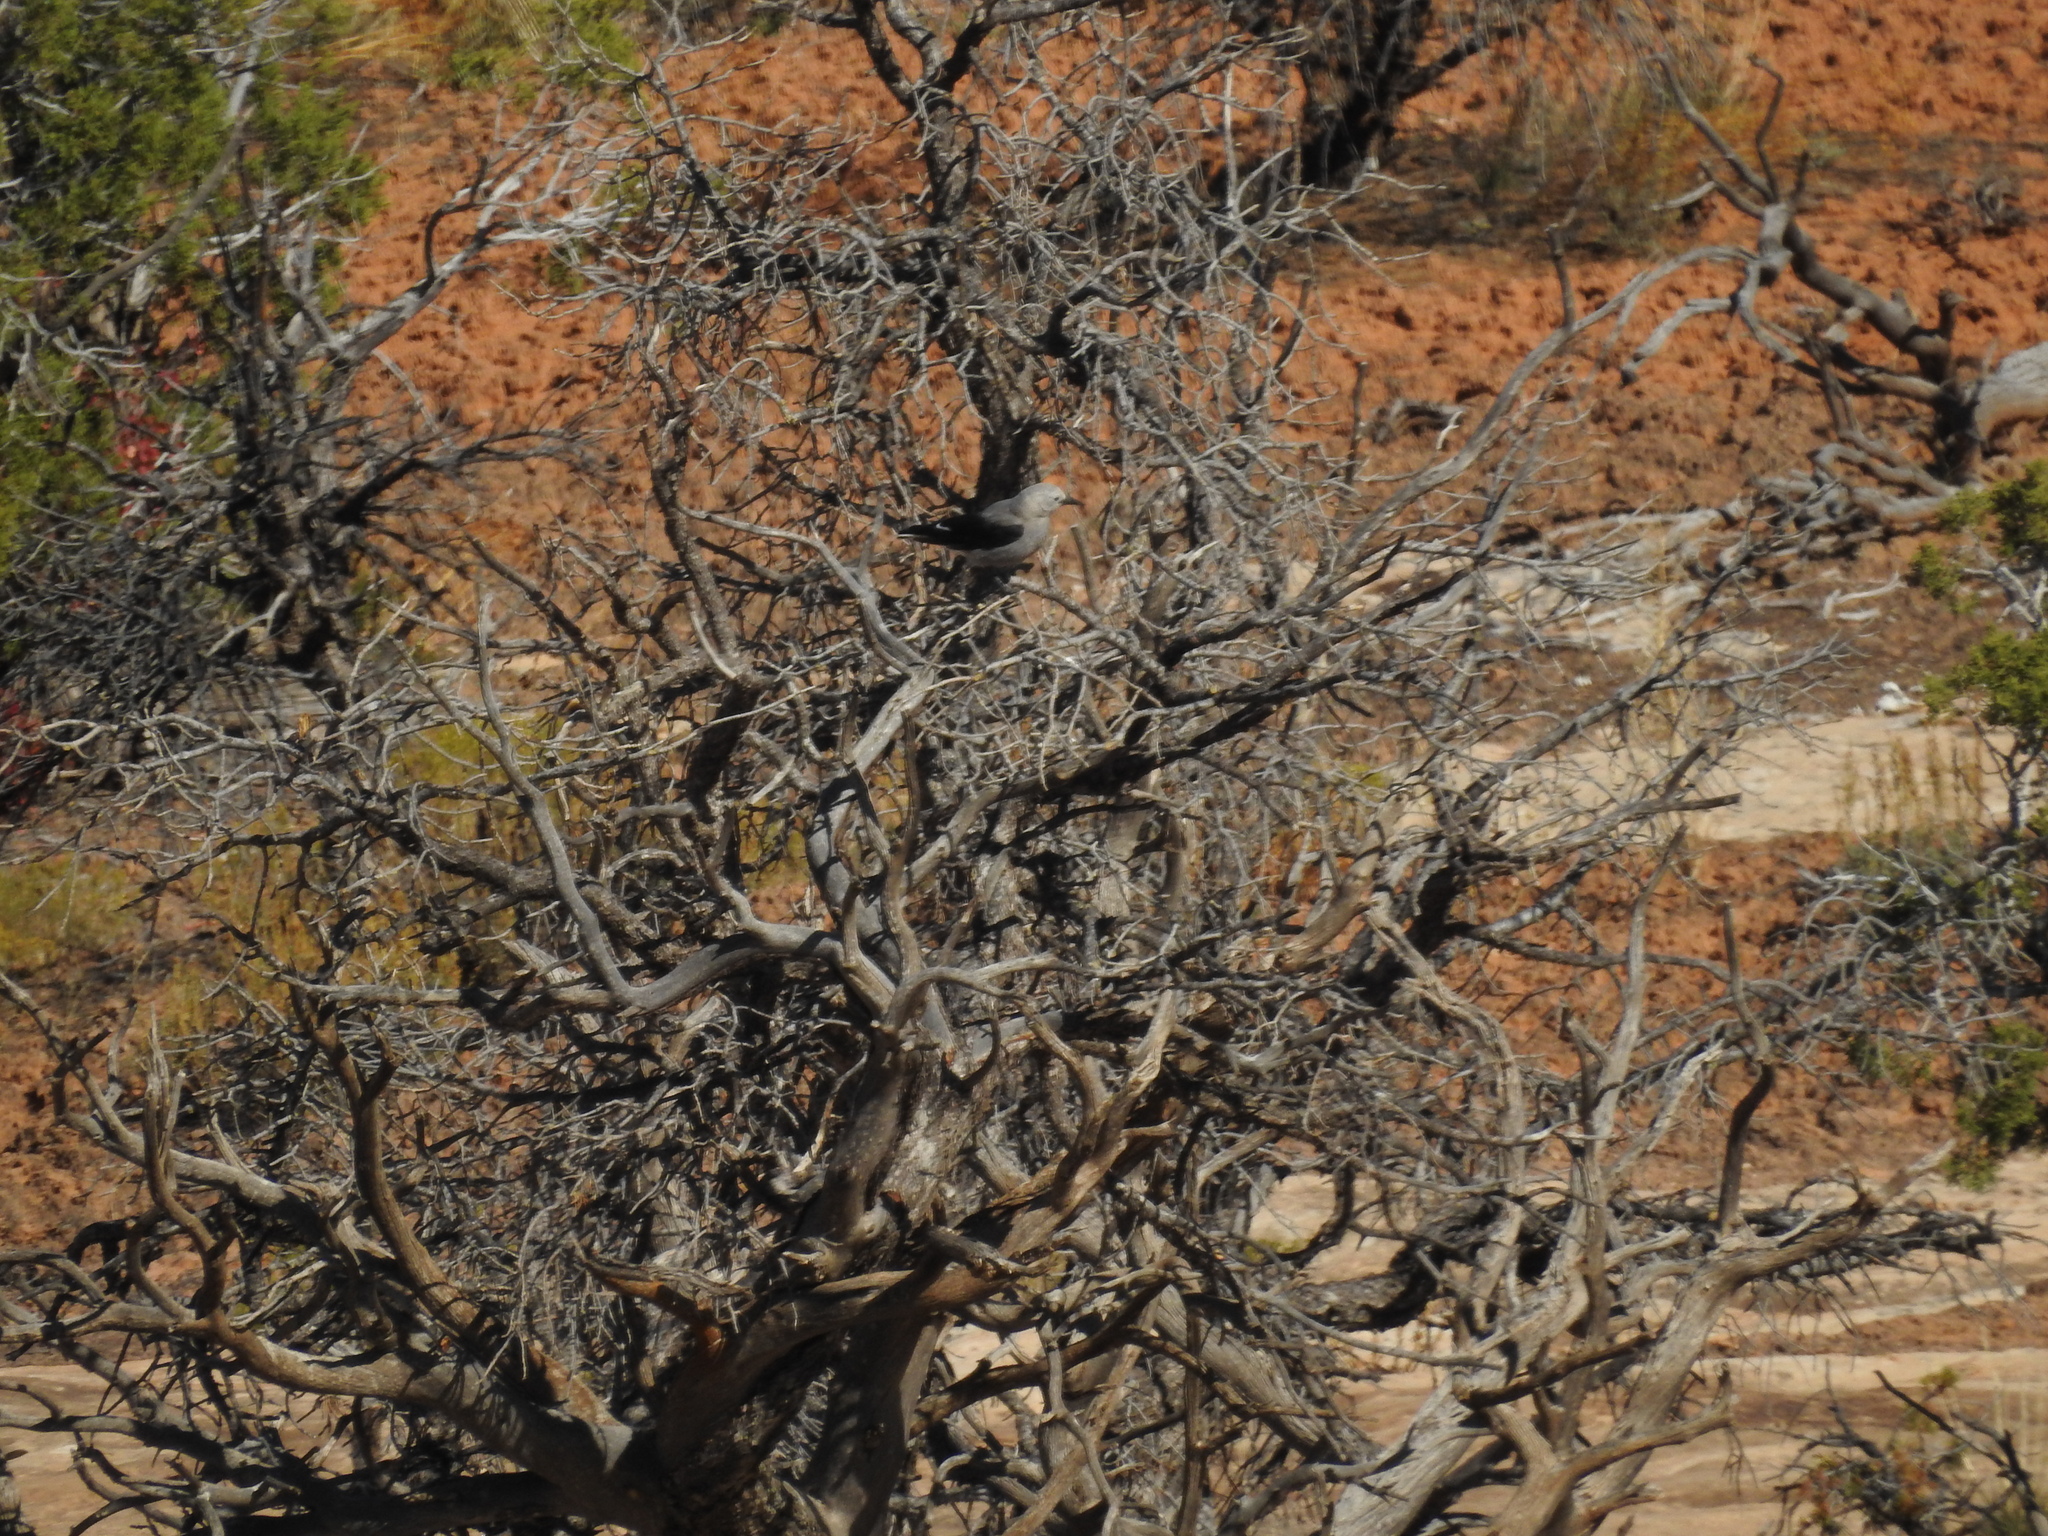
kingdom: Animalia
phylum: Chordata
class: Aves
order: Passeriformes
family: Corvidae
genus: Nucifraga
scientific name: Nucifraga columbiana
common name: Clark's nutcracker
